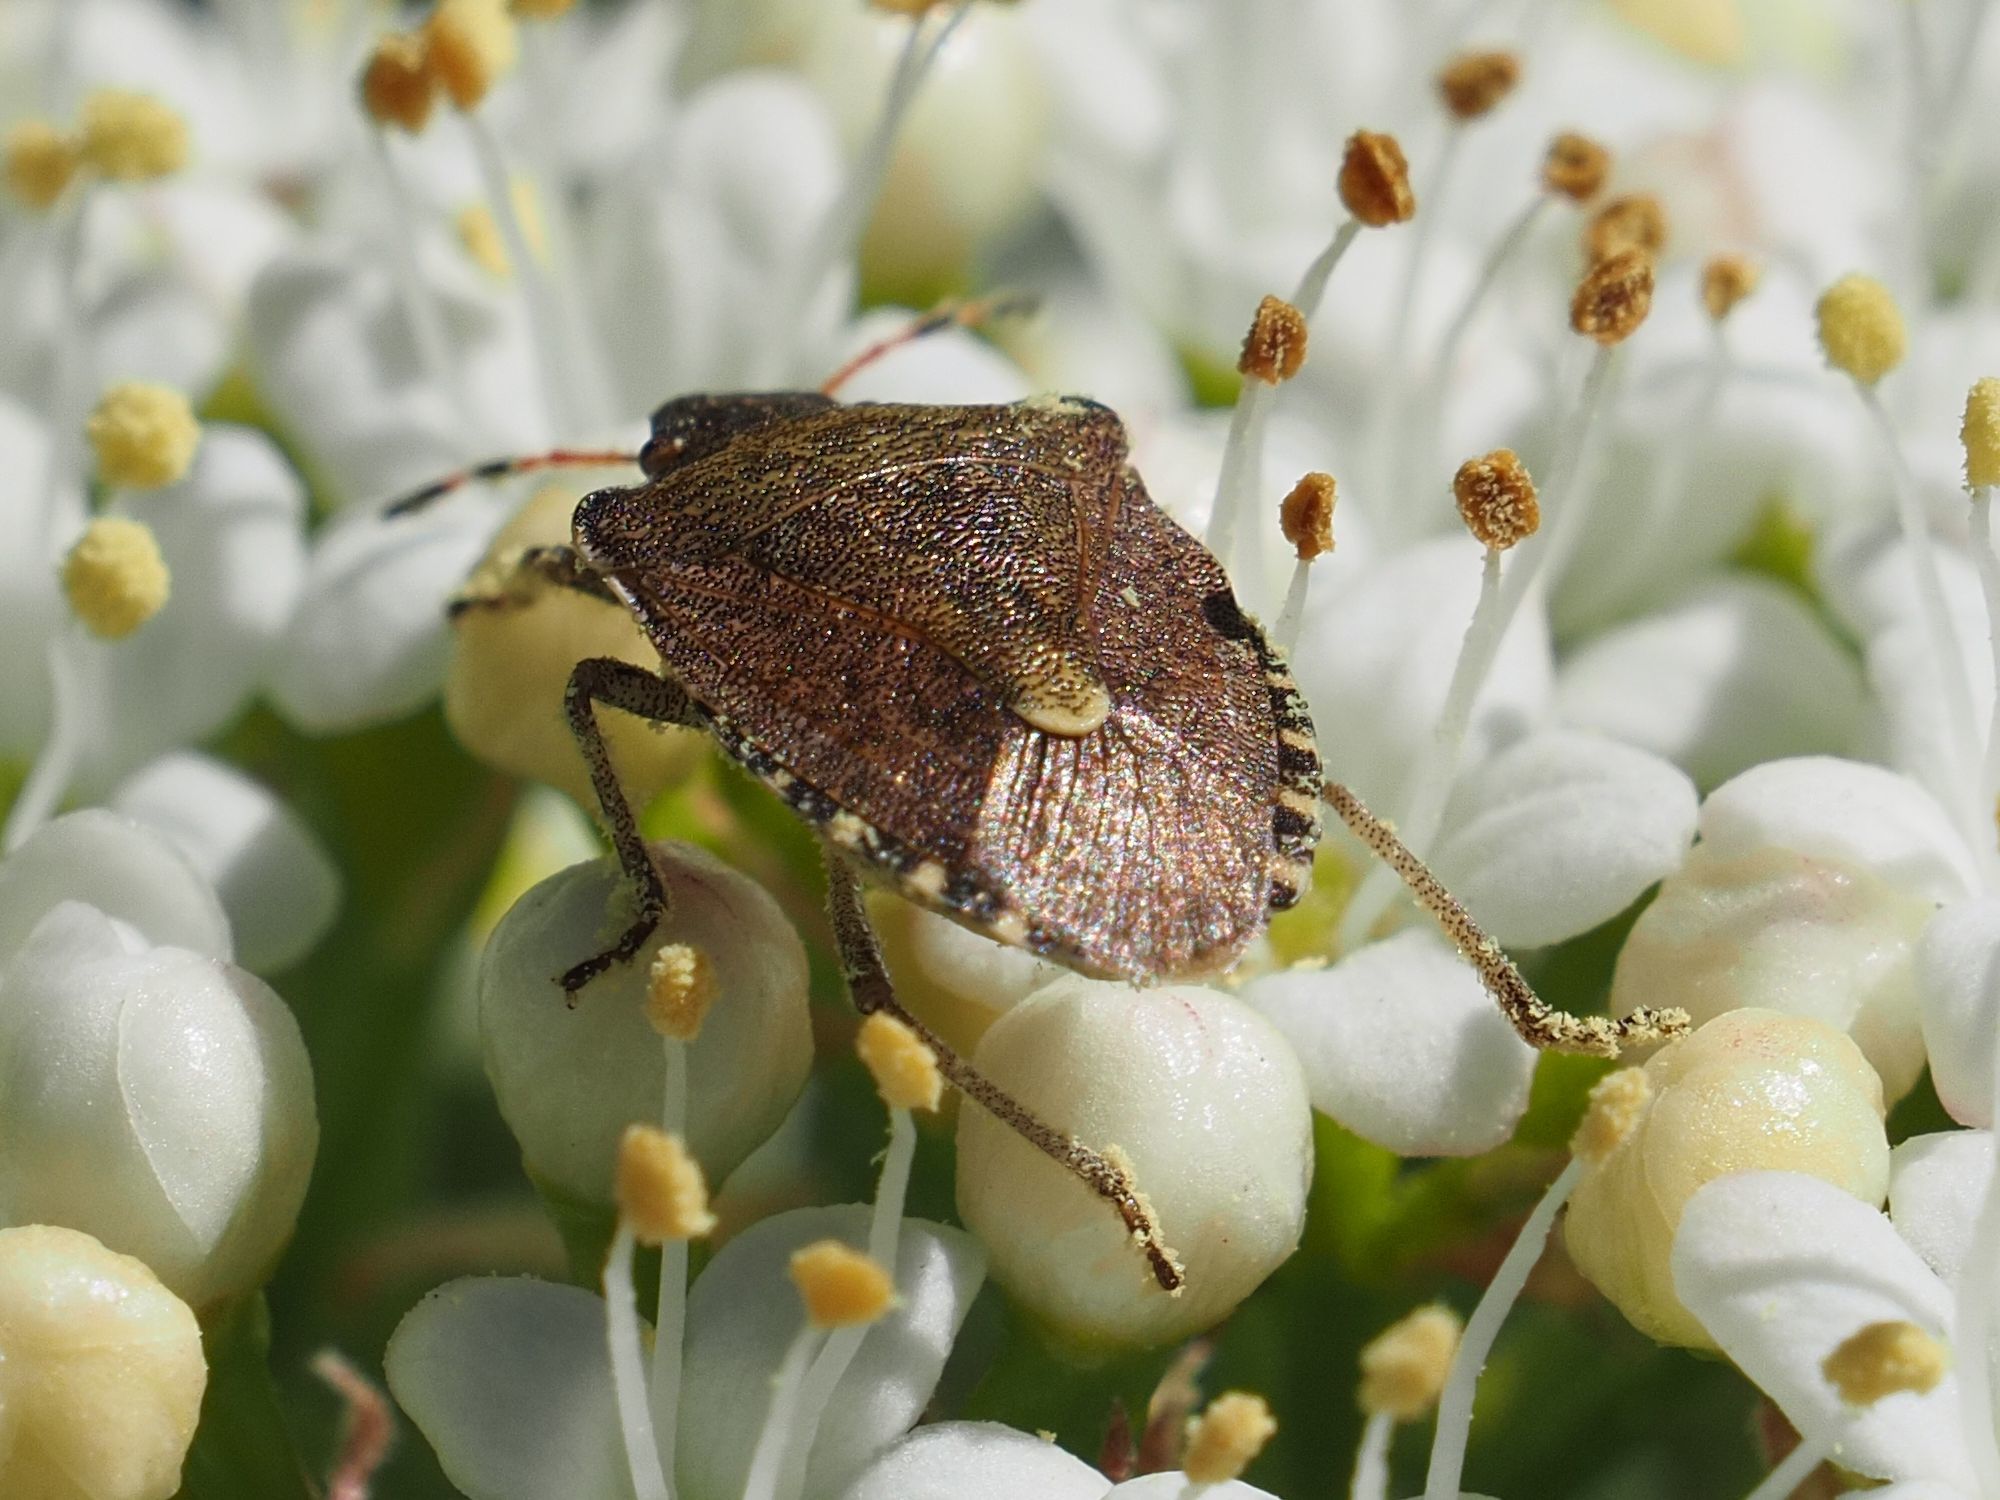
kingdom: Animalia
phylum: Arthropoda
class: Insecta
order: Hemiptera
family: Pentatomidae
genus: Holcostethus
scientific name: Holcostethus strictus
